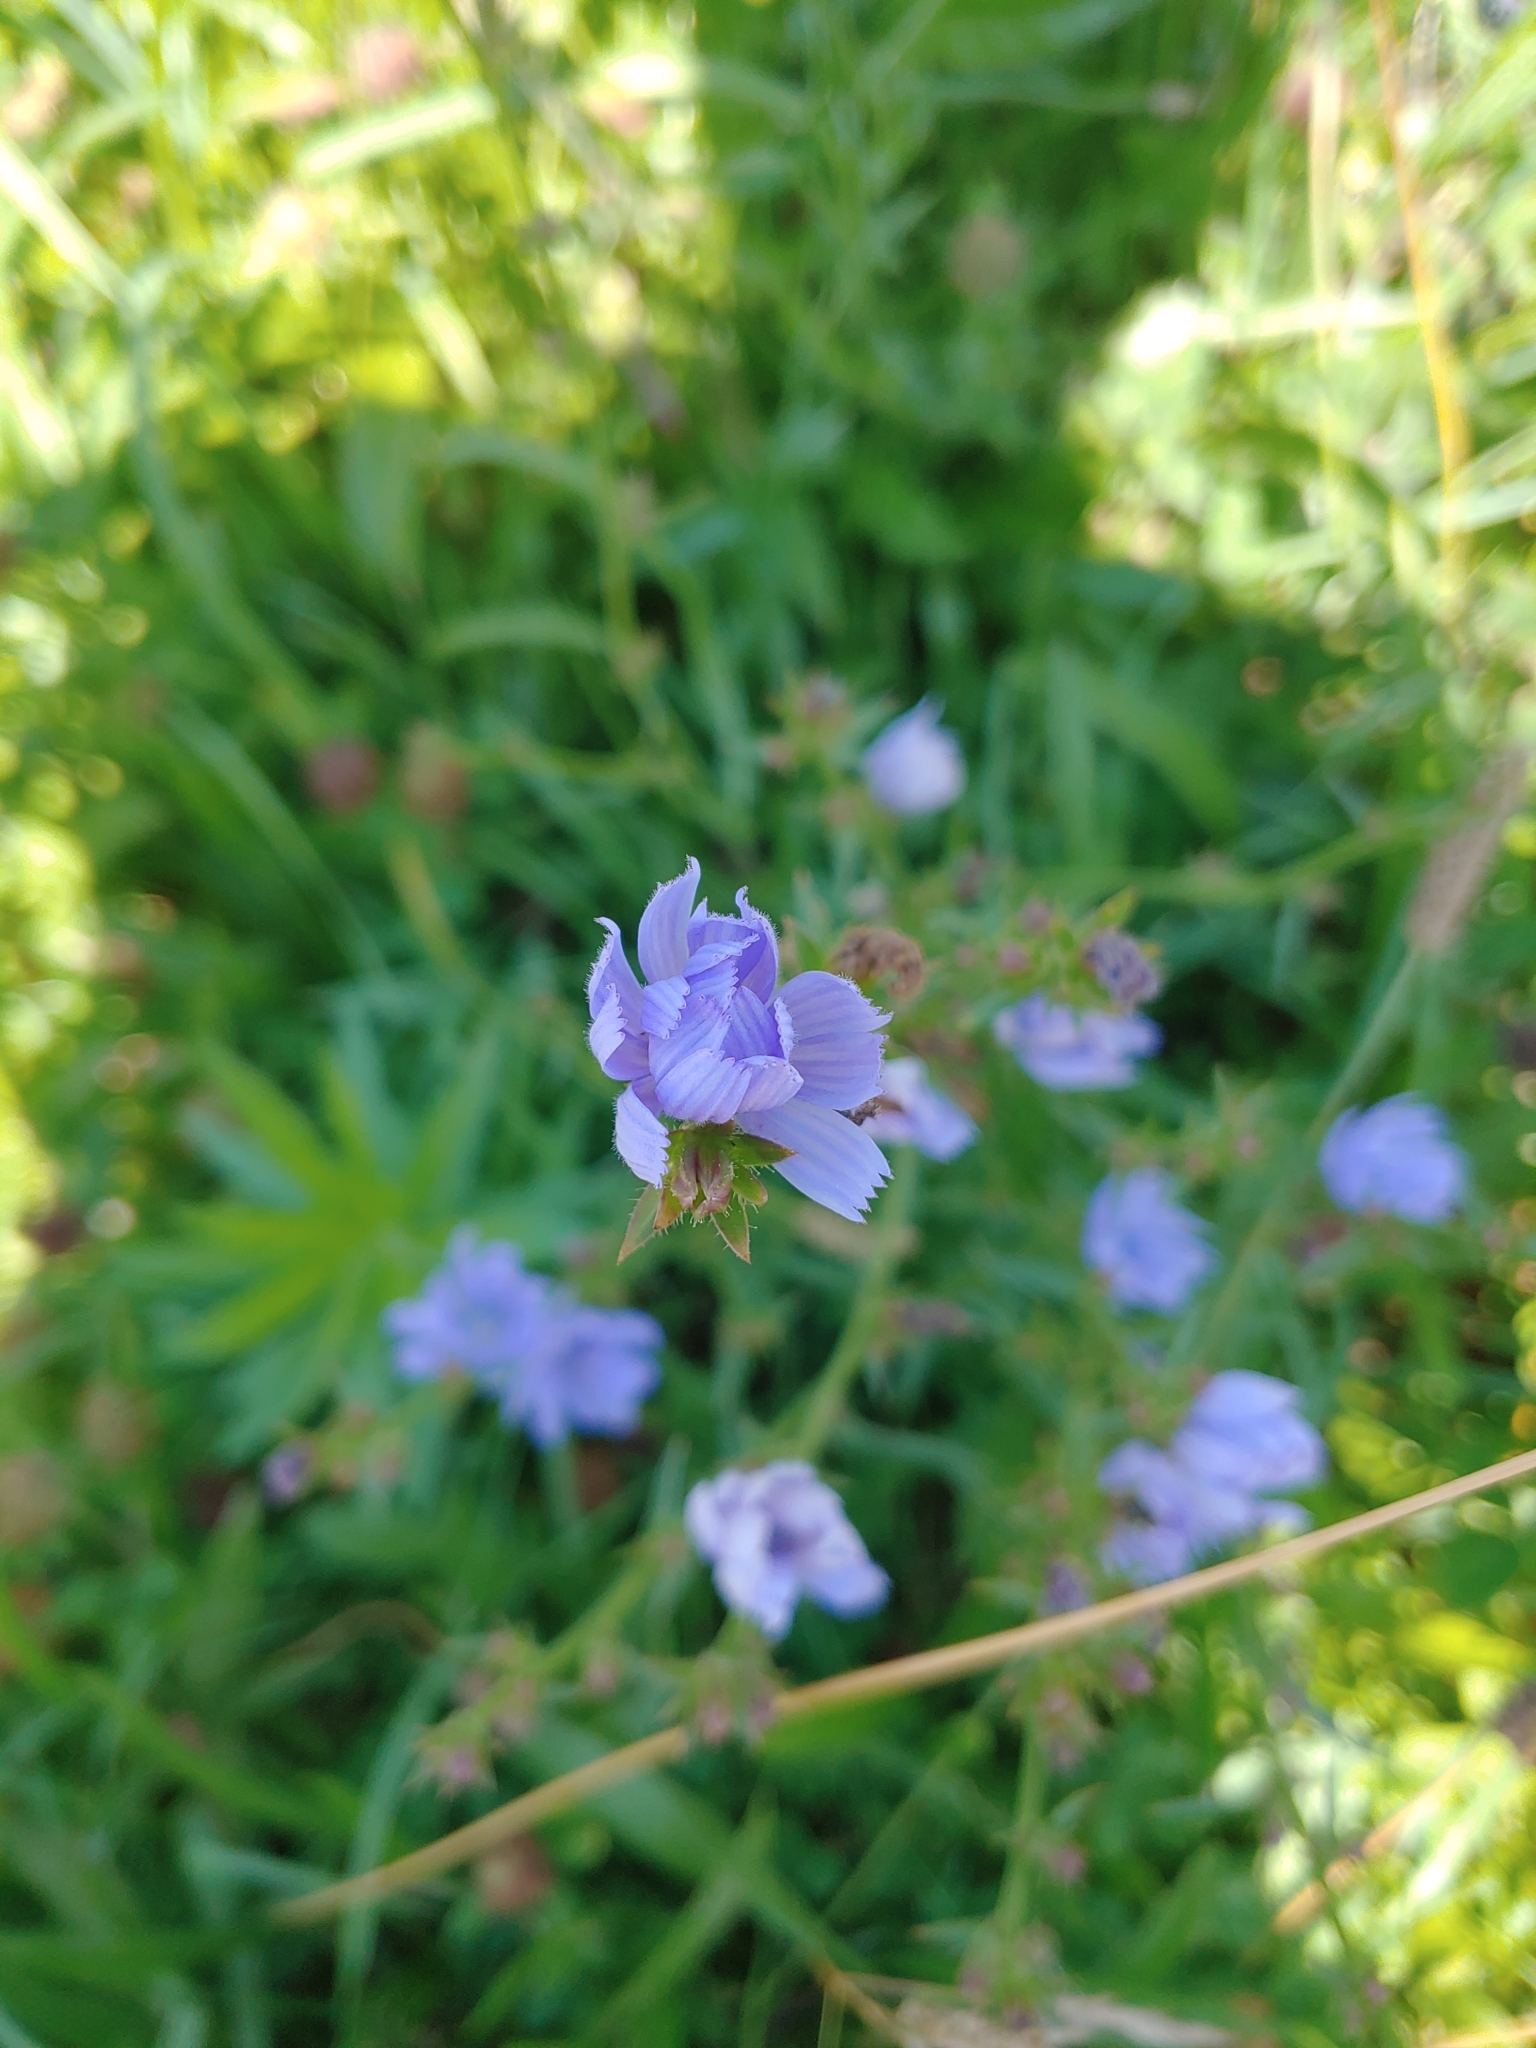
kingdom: Plantae
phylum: Tracheophyta
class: Magnoliopsida
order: Asterales
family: Asteraceae
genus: Cichorium
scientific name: Cichorium intybus
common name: Chicory
